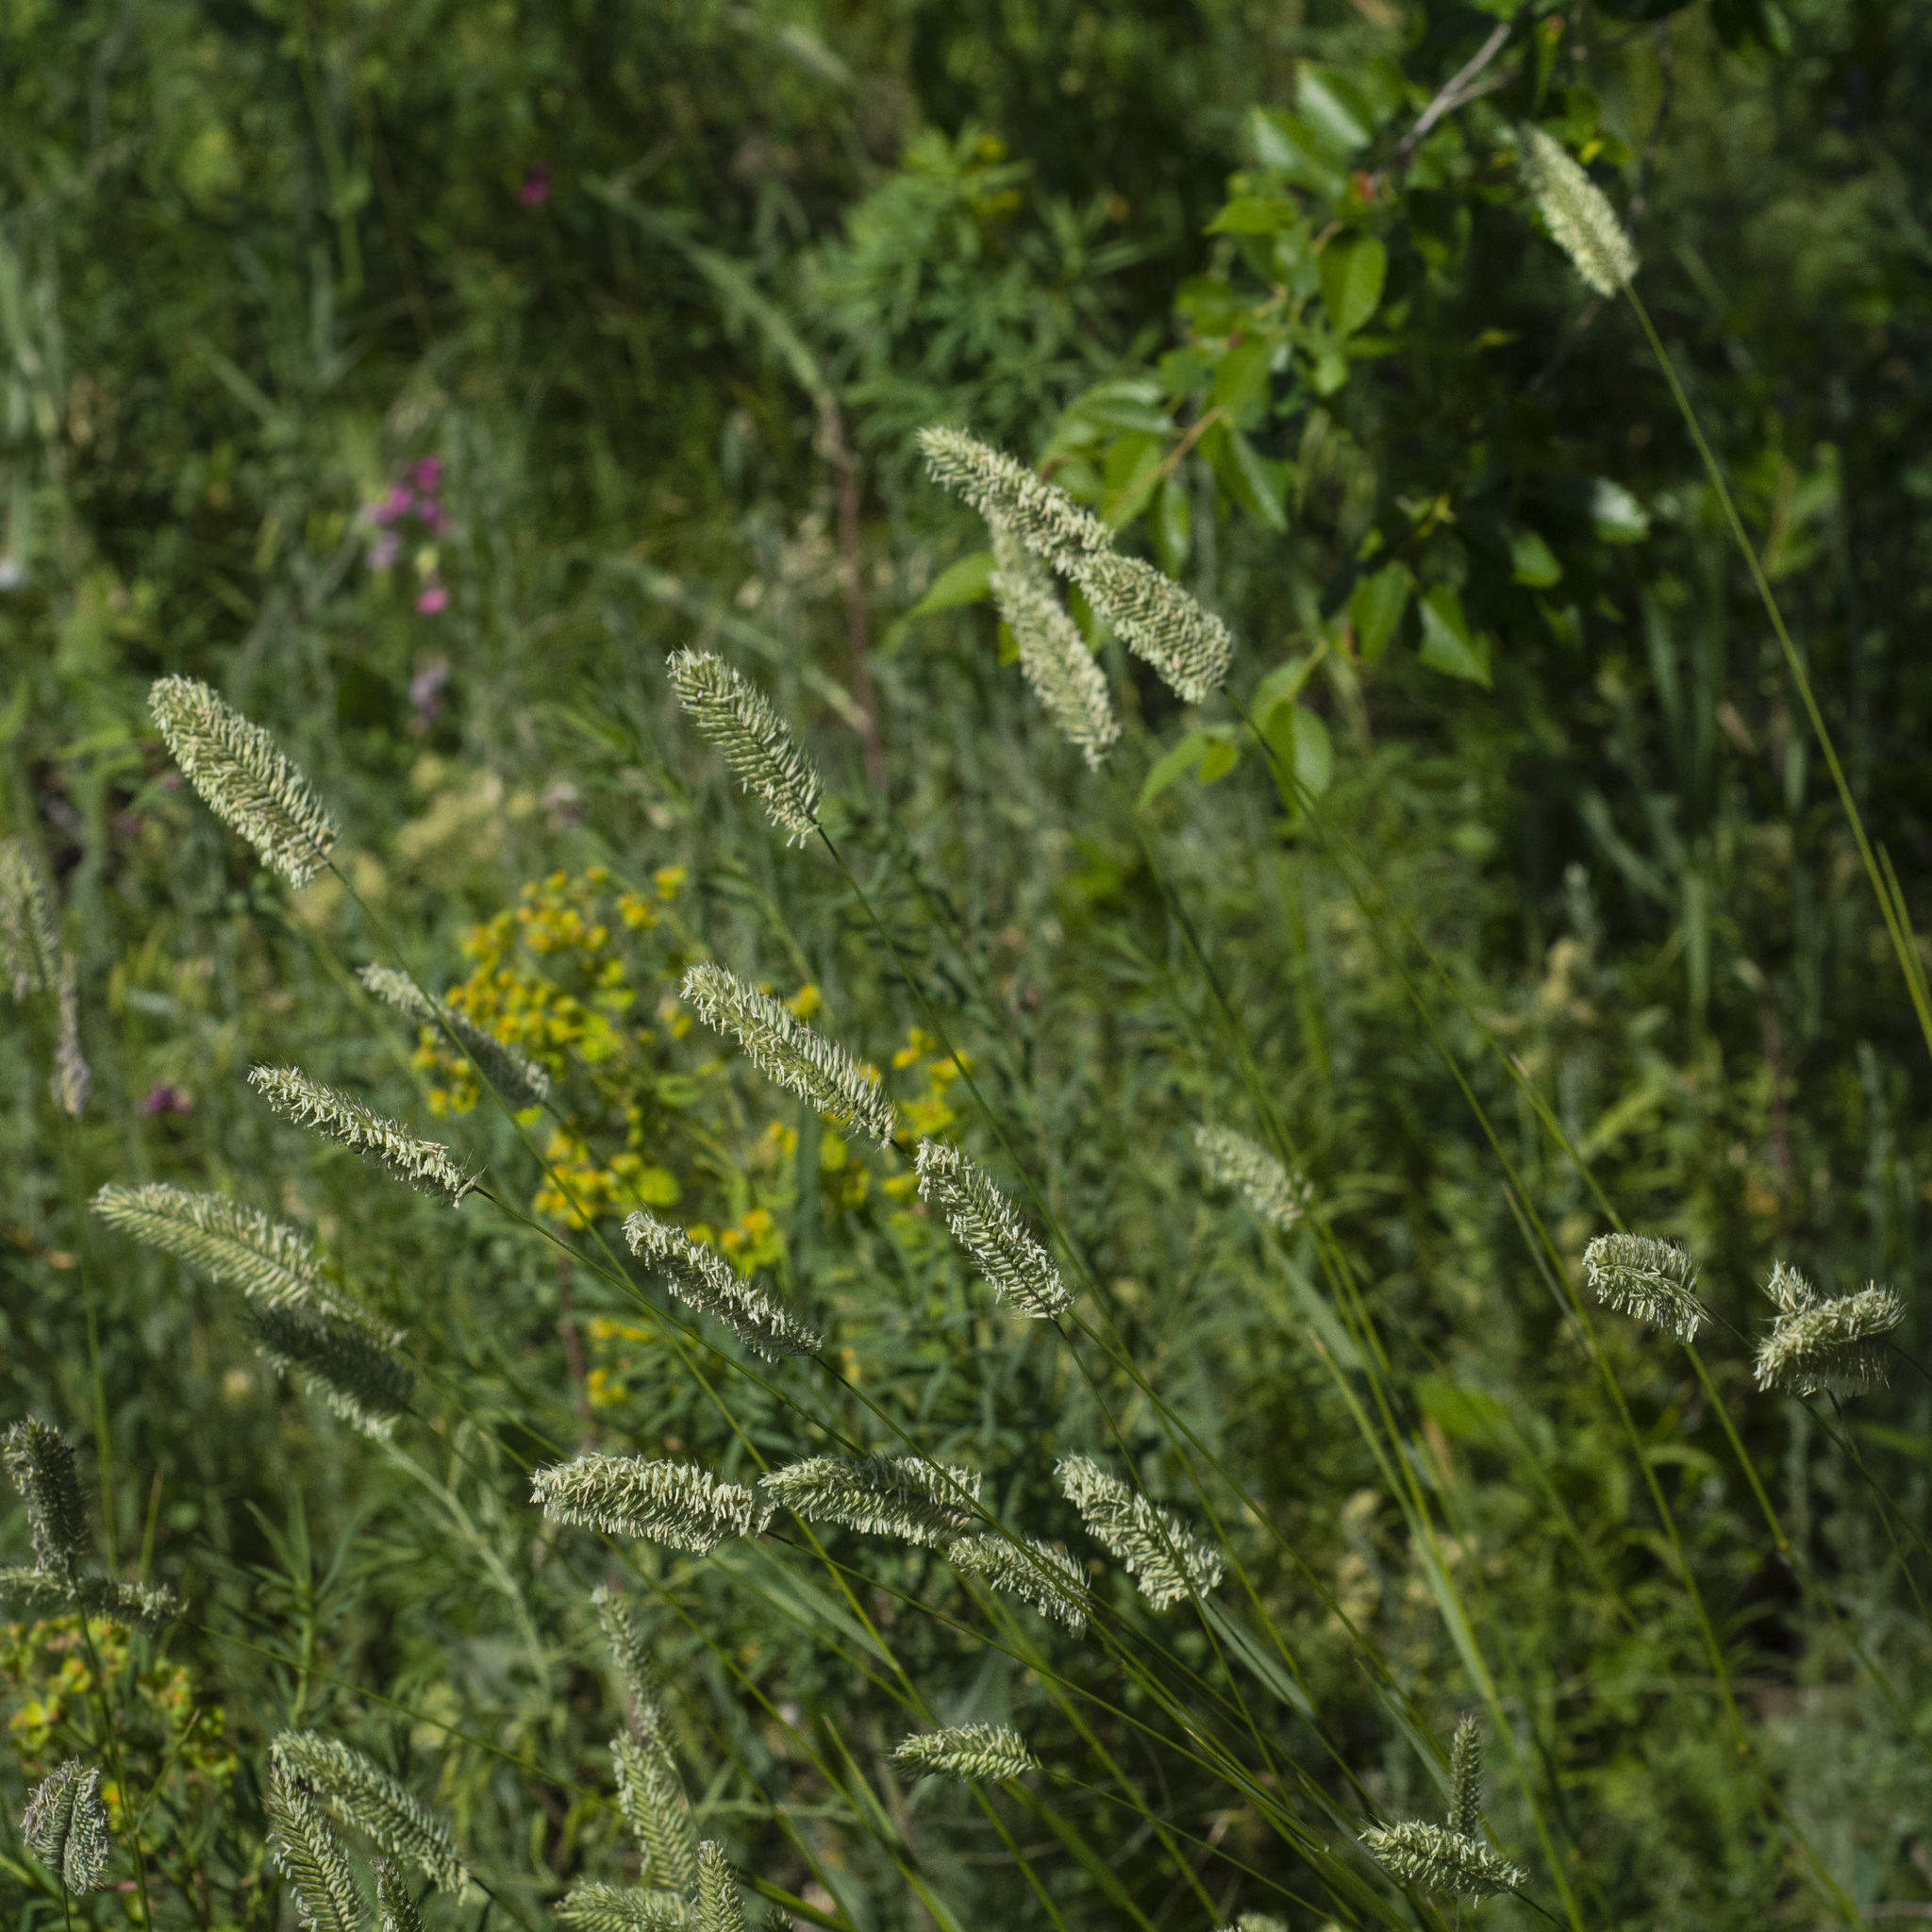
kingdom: Plantae
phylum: Tracheophyta
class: Liliopsida
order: Poales
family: Poaceae
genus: Agropyron
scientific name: Agropyron cristatum
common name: Crested wheatgrass
